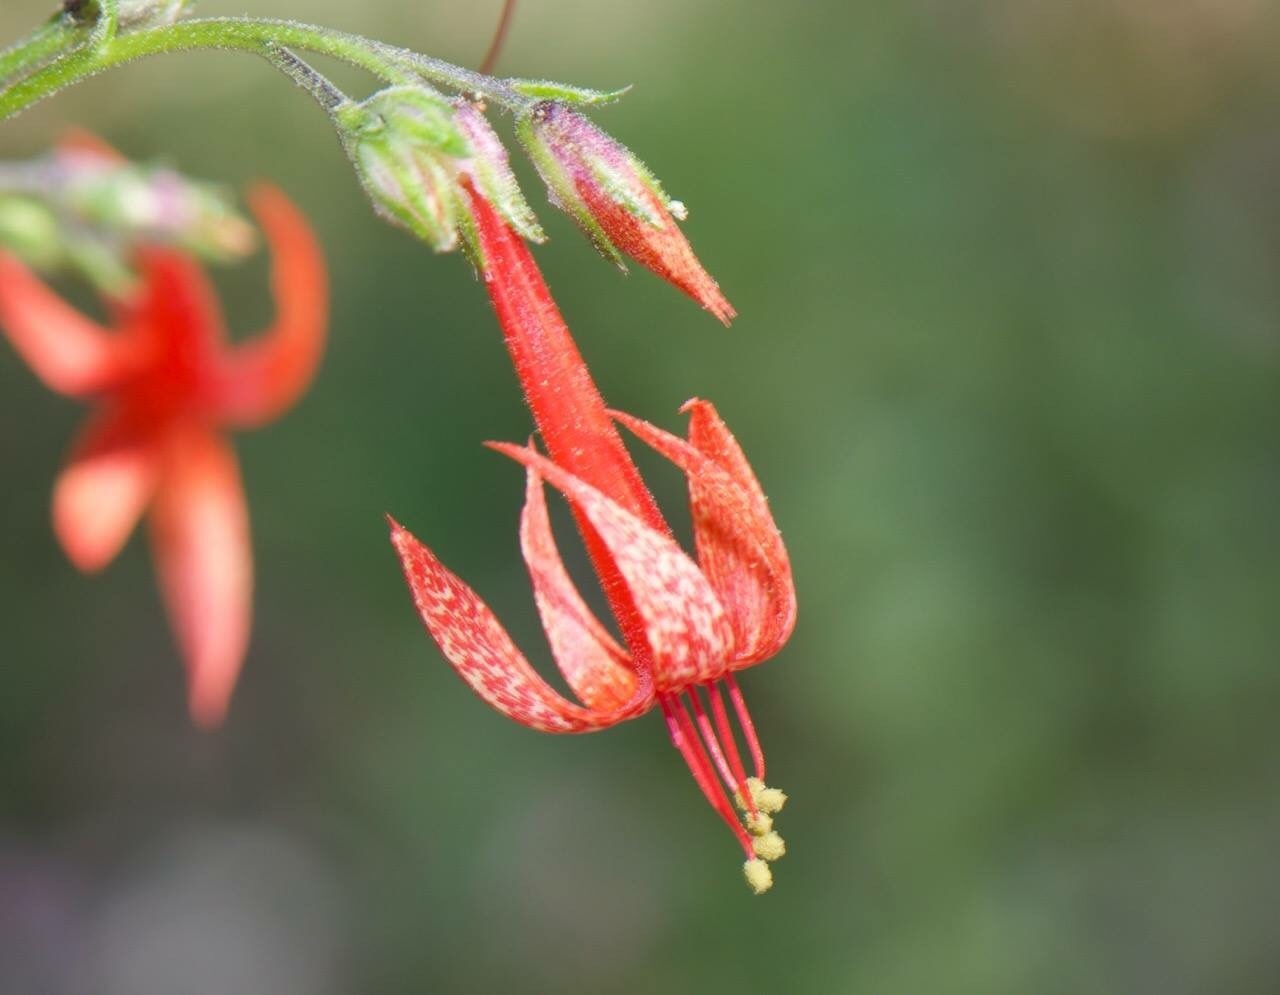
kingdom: Plantae
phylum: Tracheophyta
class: Magnoliopsida
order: Ericales
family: Polemoniaceae
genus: Ipomopsis
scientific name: Ipomopsis aggregata
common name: Scarlet gilia
